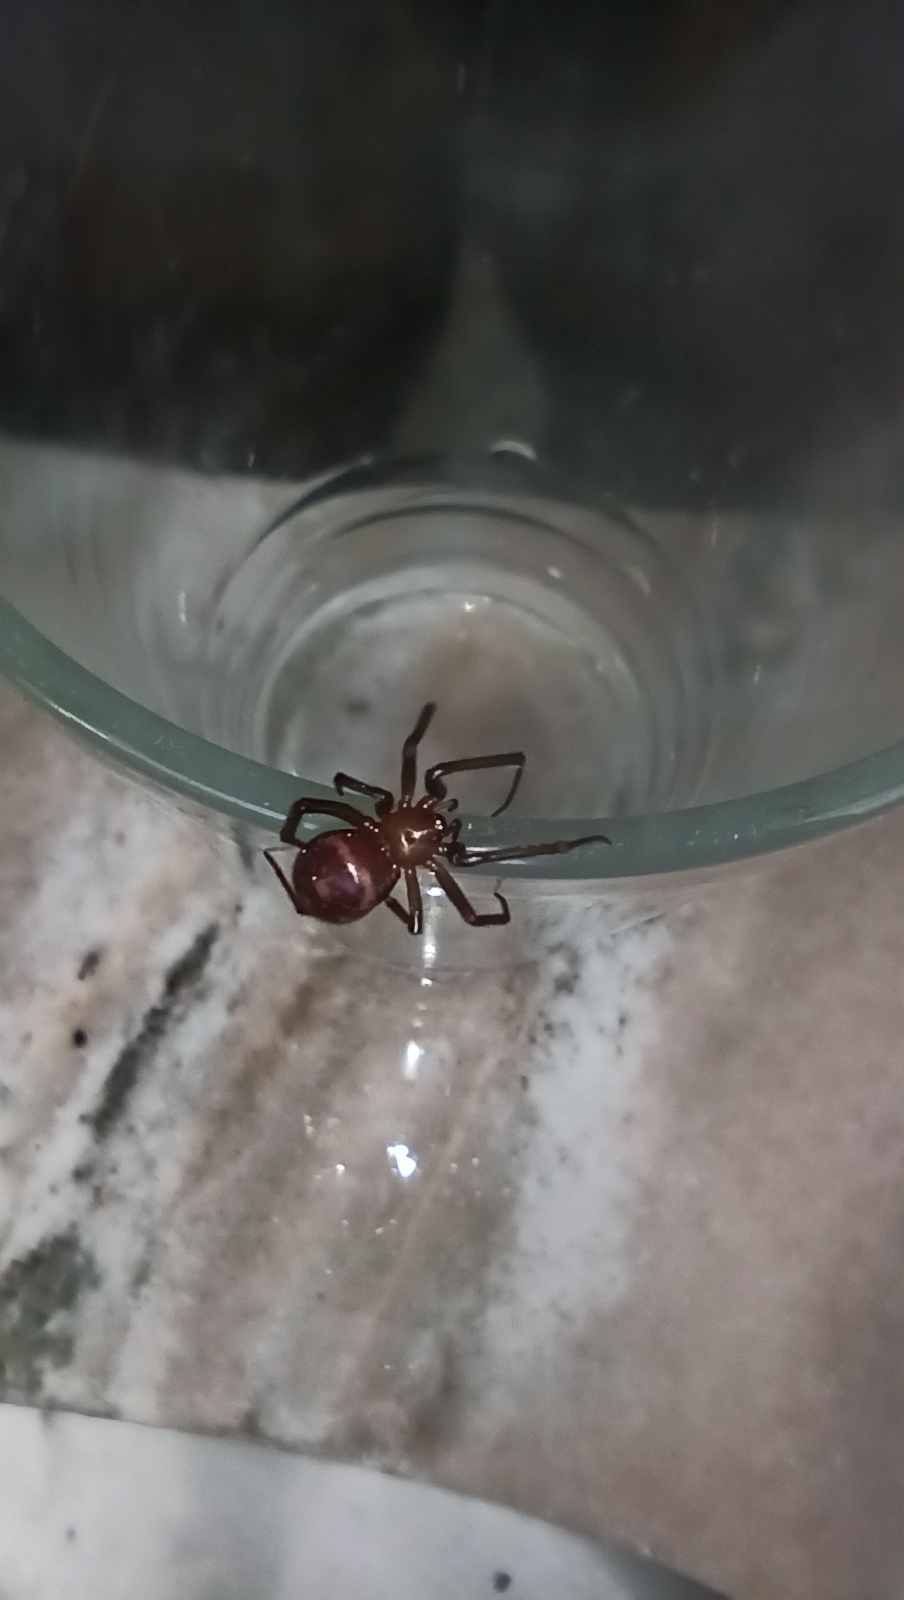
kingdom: Animalia
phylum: Arthropoda
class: Arachnida
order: Araneae
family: Theridiidae
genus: Steatoda
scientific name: Steatoda grossa
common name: False black widow
